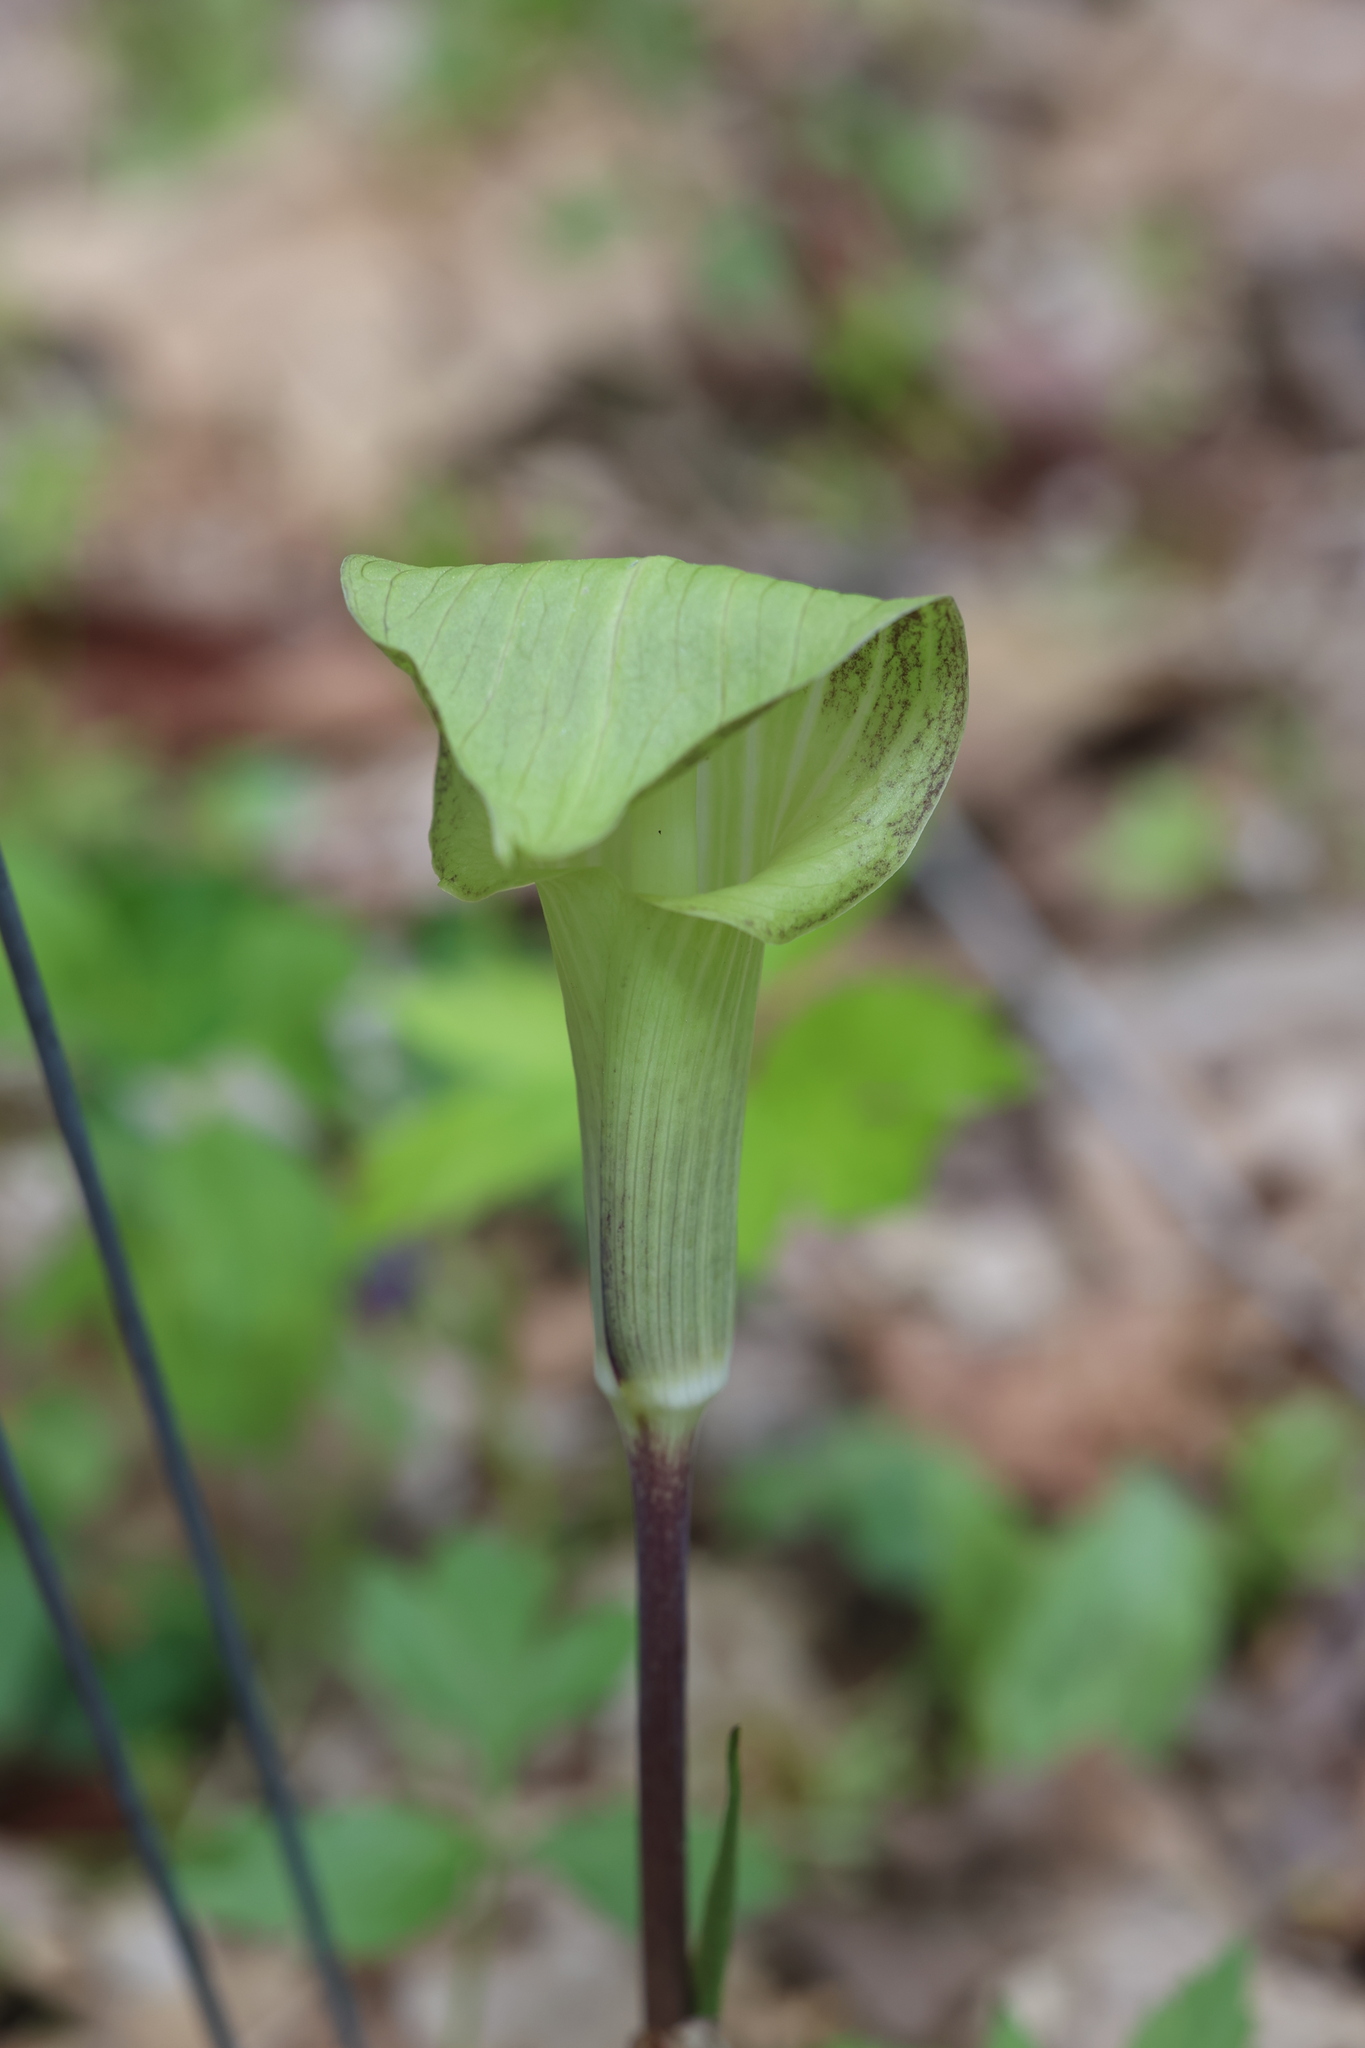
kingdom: Plantae
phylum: Tracheophyta
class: Liliopsida
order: Alismatales
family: Araceae
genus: Arisaema
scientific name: Arisaema triphyllum
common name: Jack-in-the-pulpit
